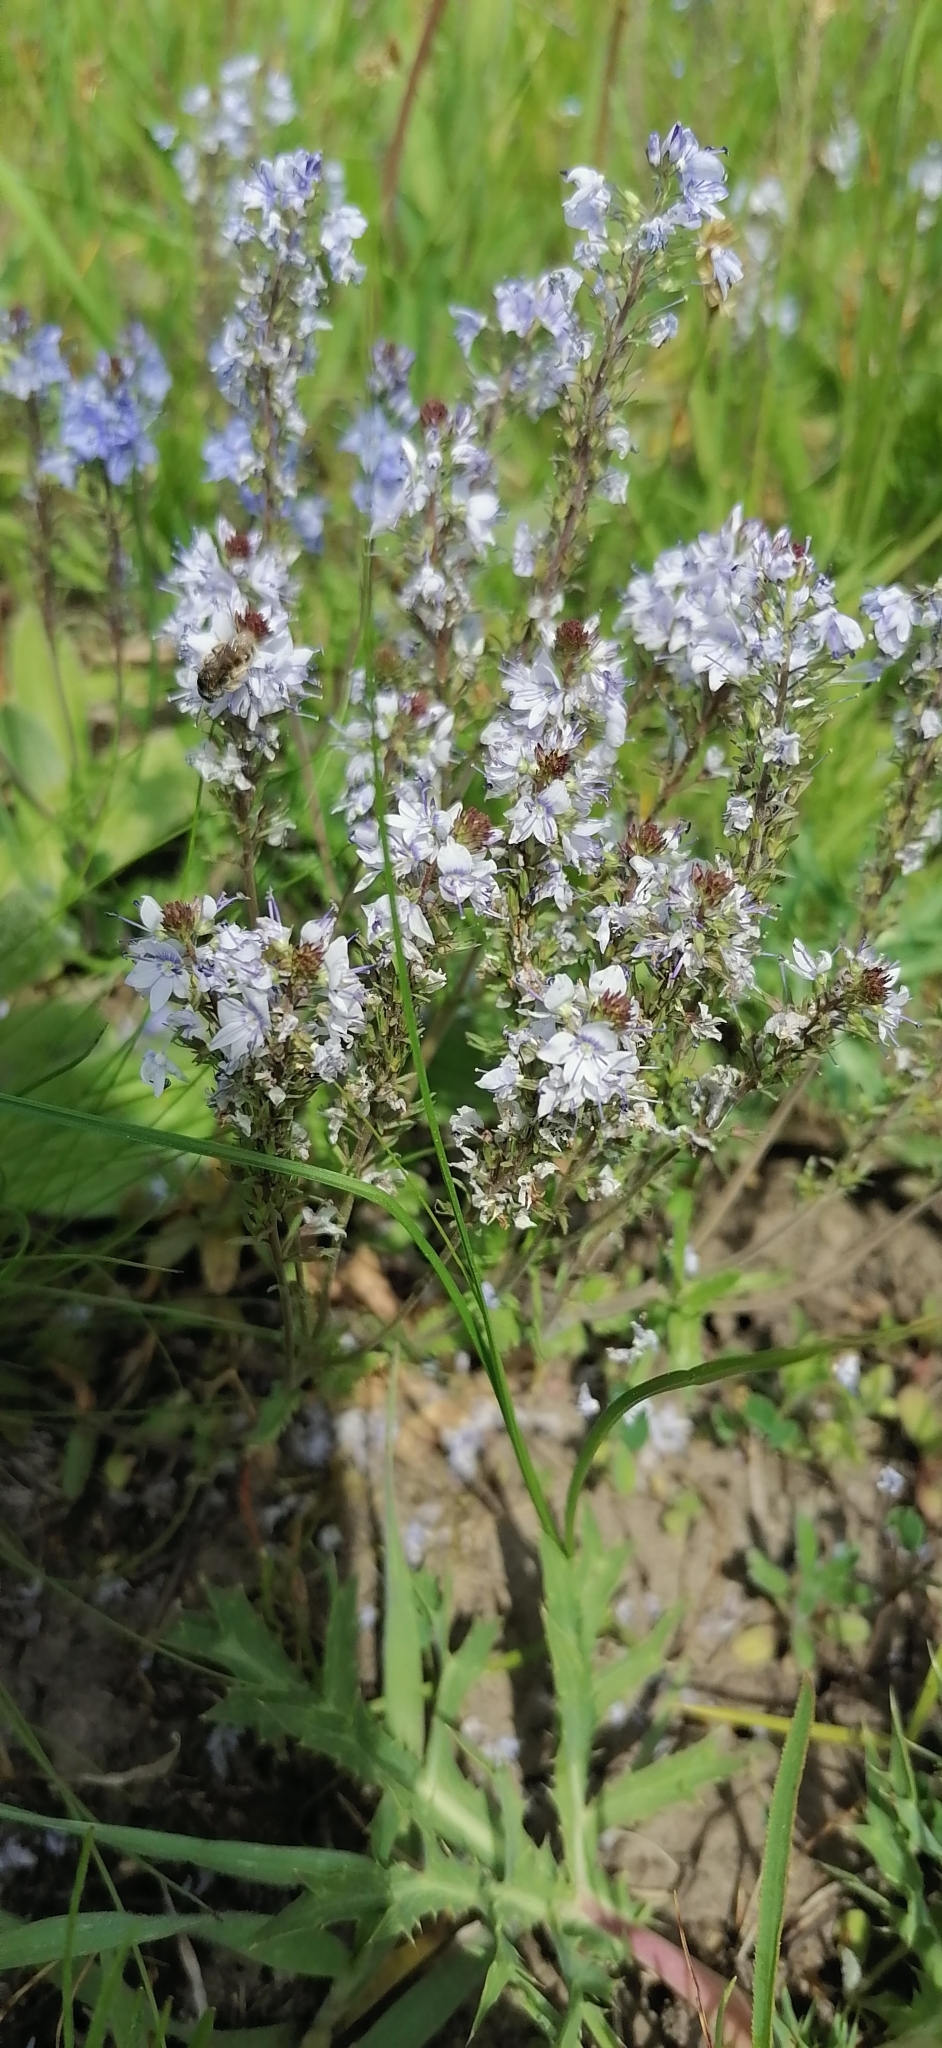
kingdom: Plantae
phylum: Tracheophyta
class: Magnoliopsida
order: Lamiales
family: Plantaginaceae
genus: Veronica
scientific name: Veronica prostrata
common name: Prostrate speedwell
